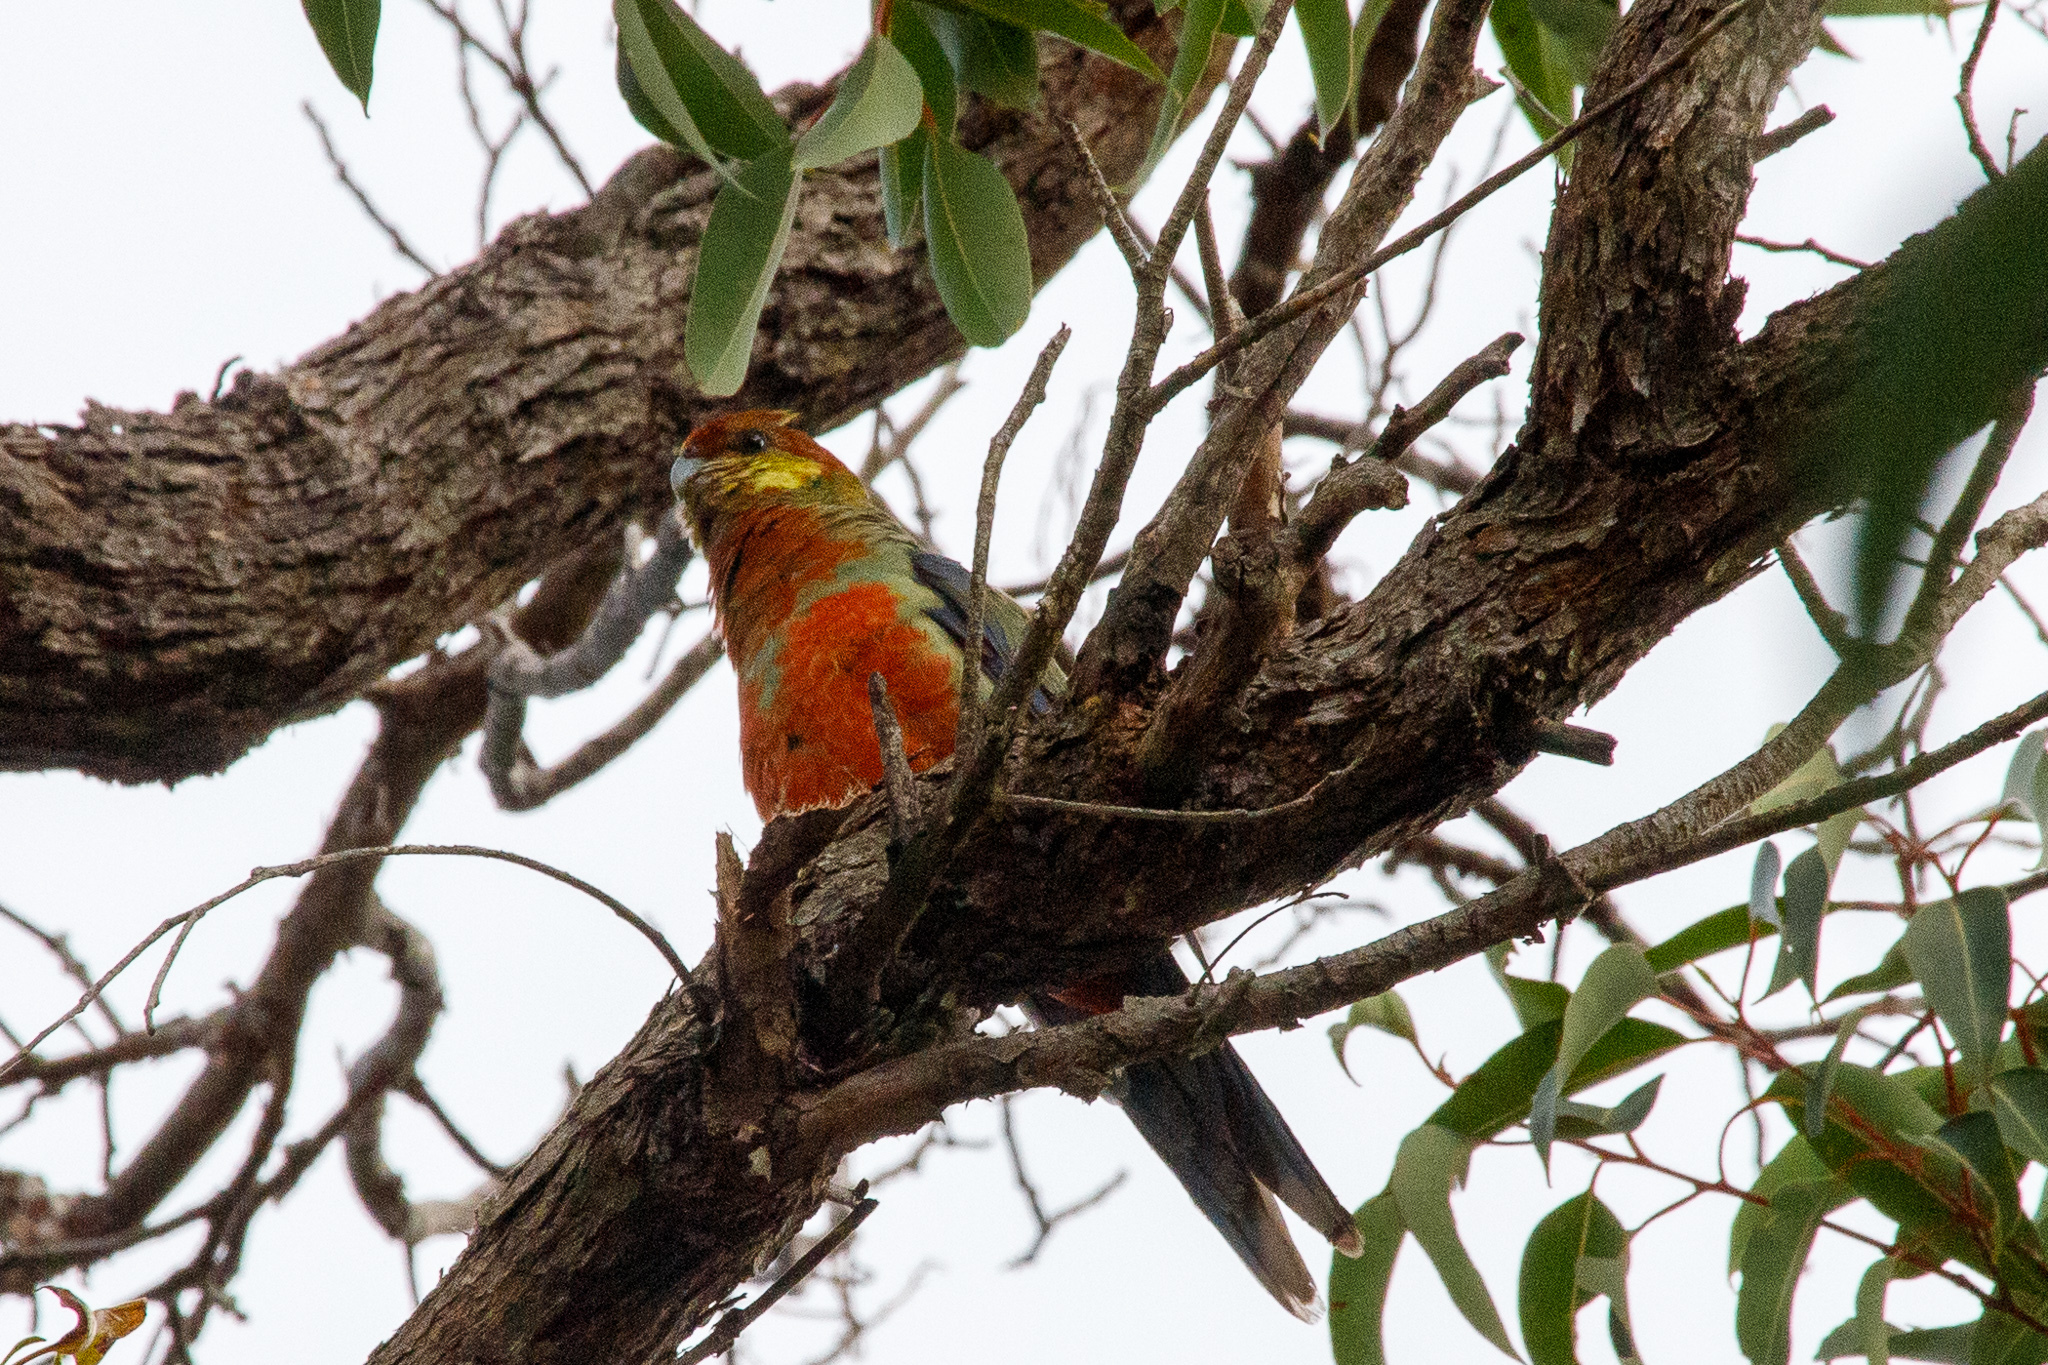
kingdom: Animalia
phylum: Chordata
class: Aves
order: Psittaciformes
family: Psittacidae
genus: Platycercus
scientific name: Platycercus icterotis
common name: Western rosella
